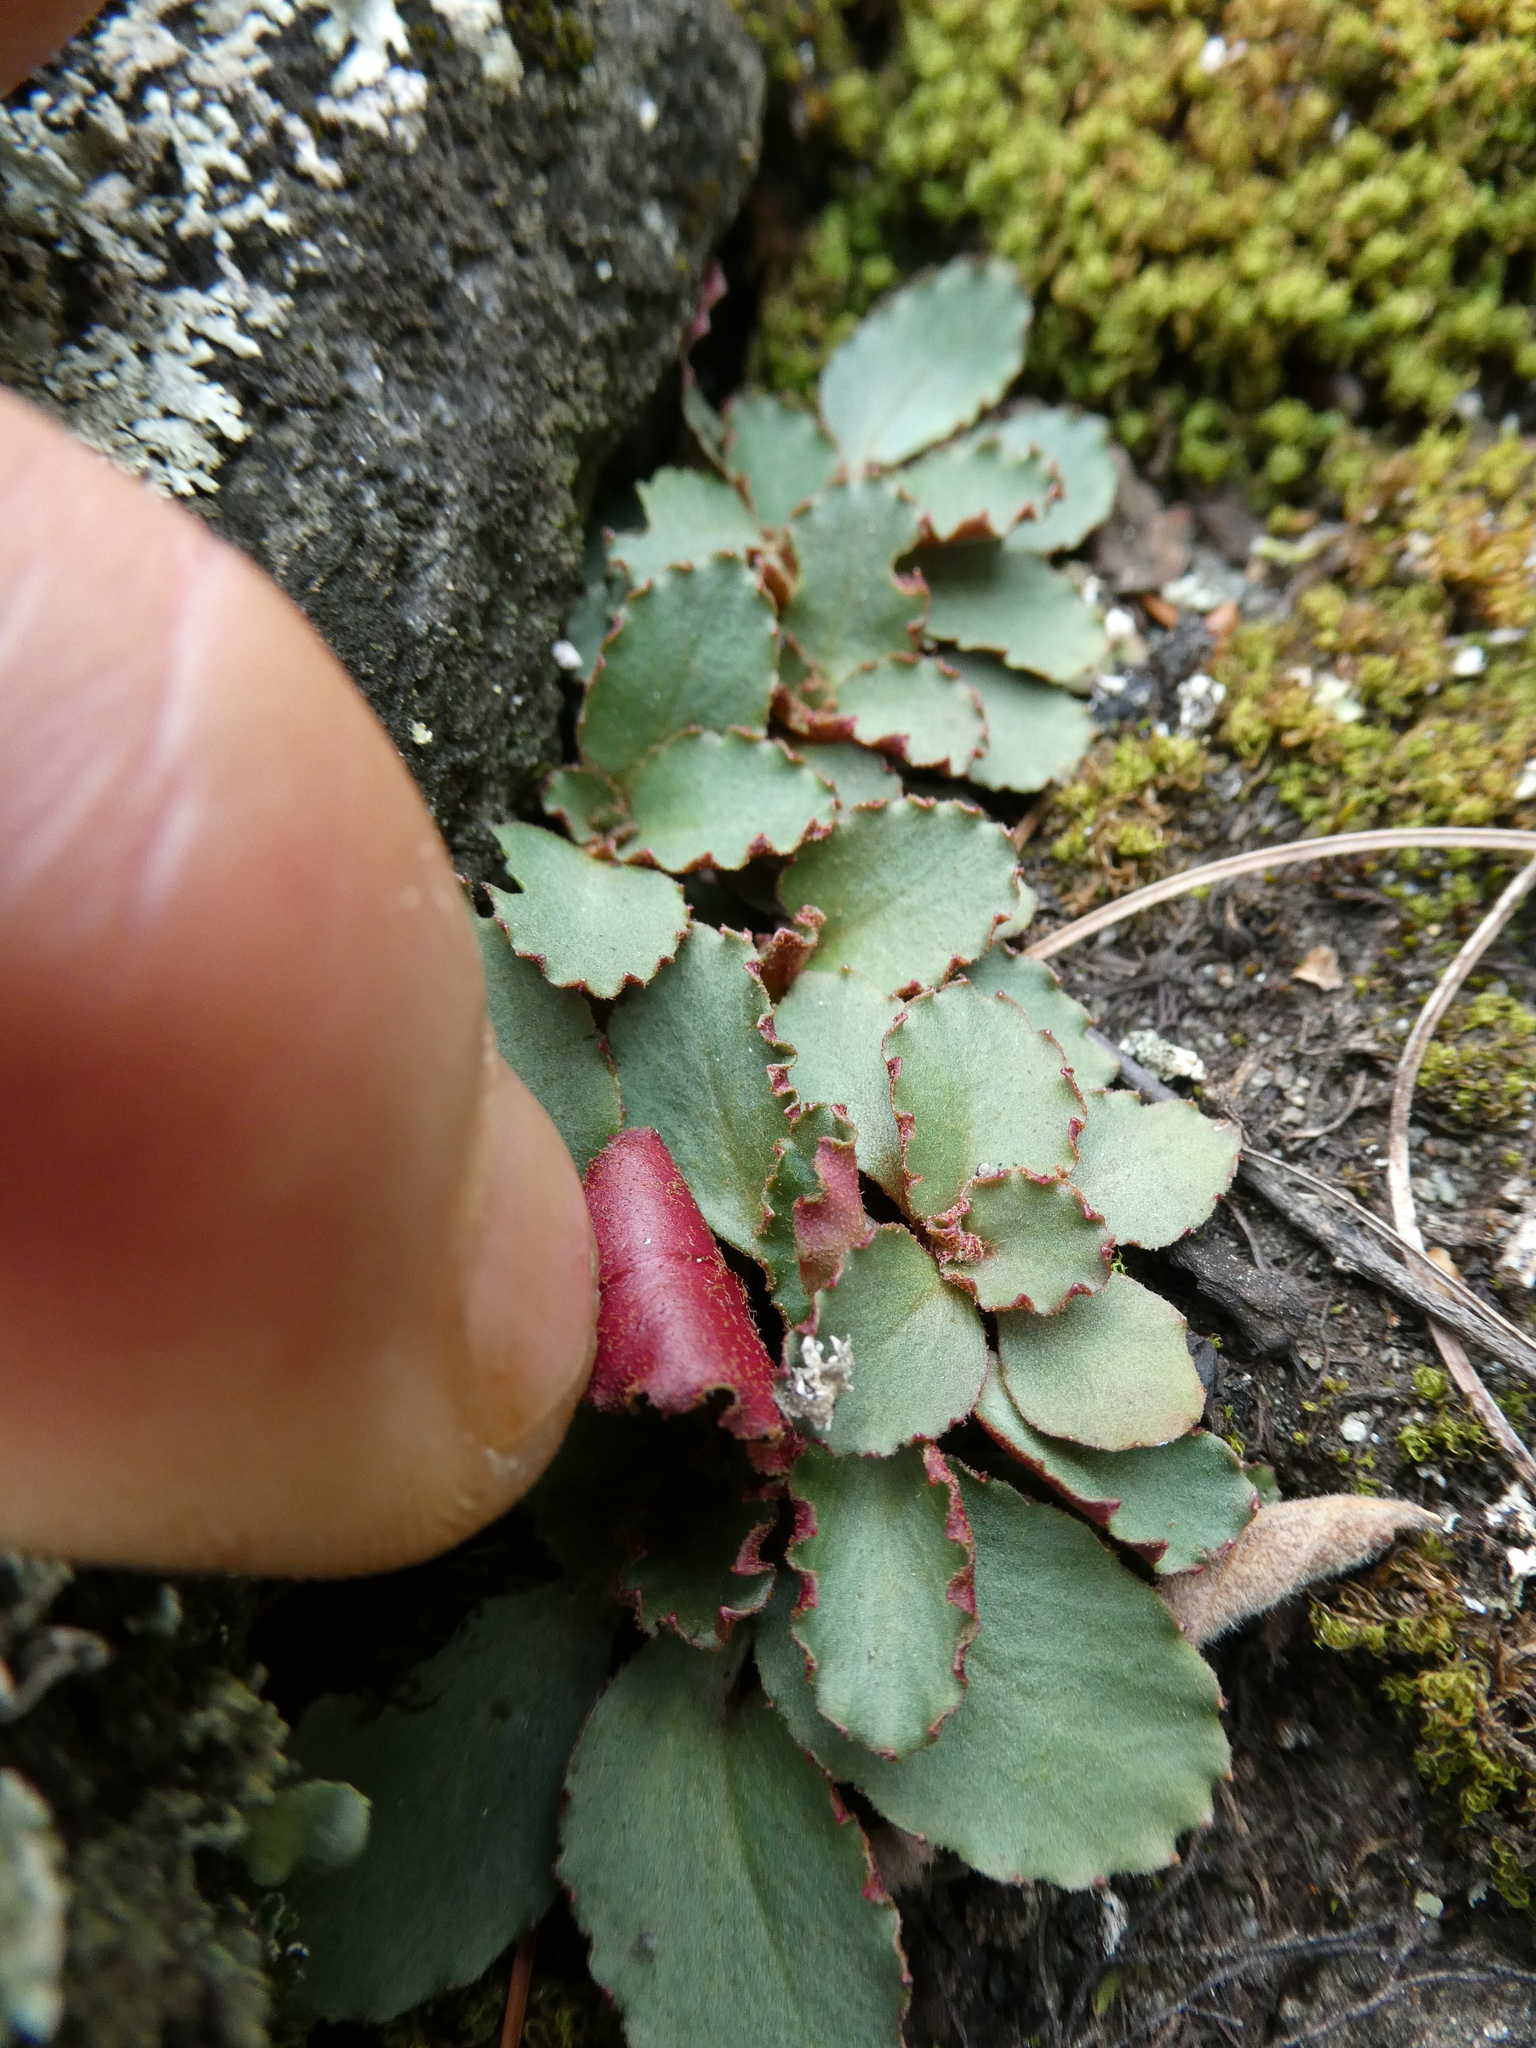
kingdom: Plantae
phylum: Tracheophyta
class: Magnoliopsida
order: Saxifragales
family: Saxifragaceae
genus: Micranthes
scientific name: Micranthes virginiensis
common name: Early saxifrage
